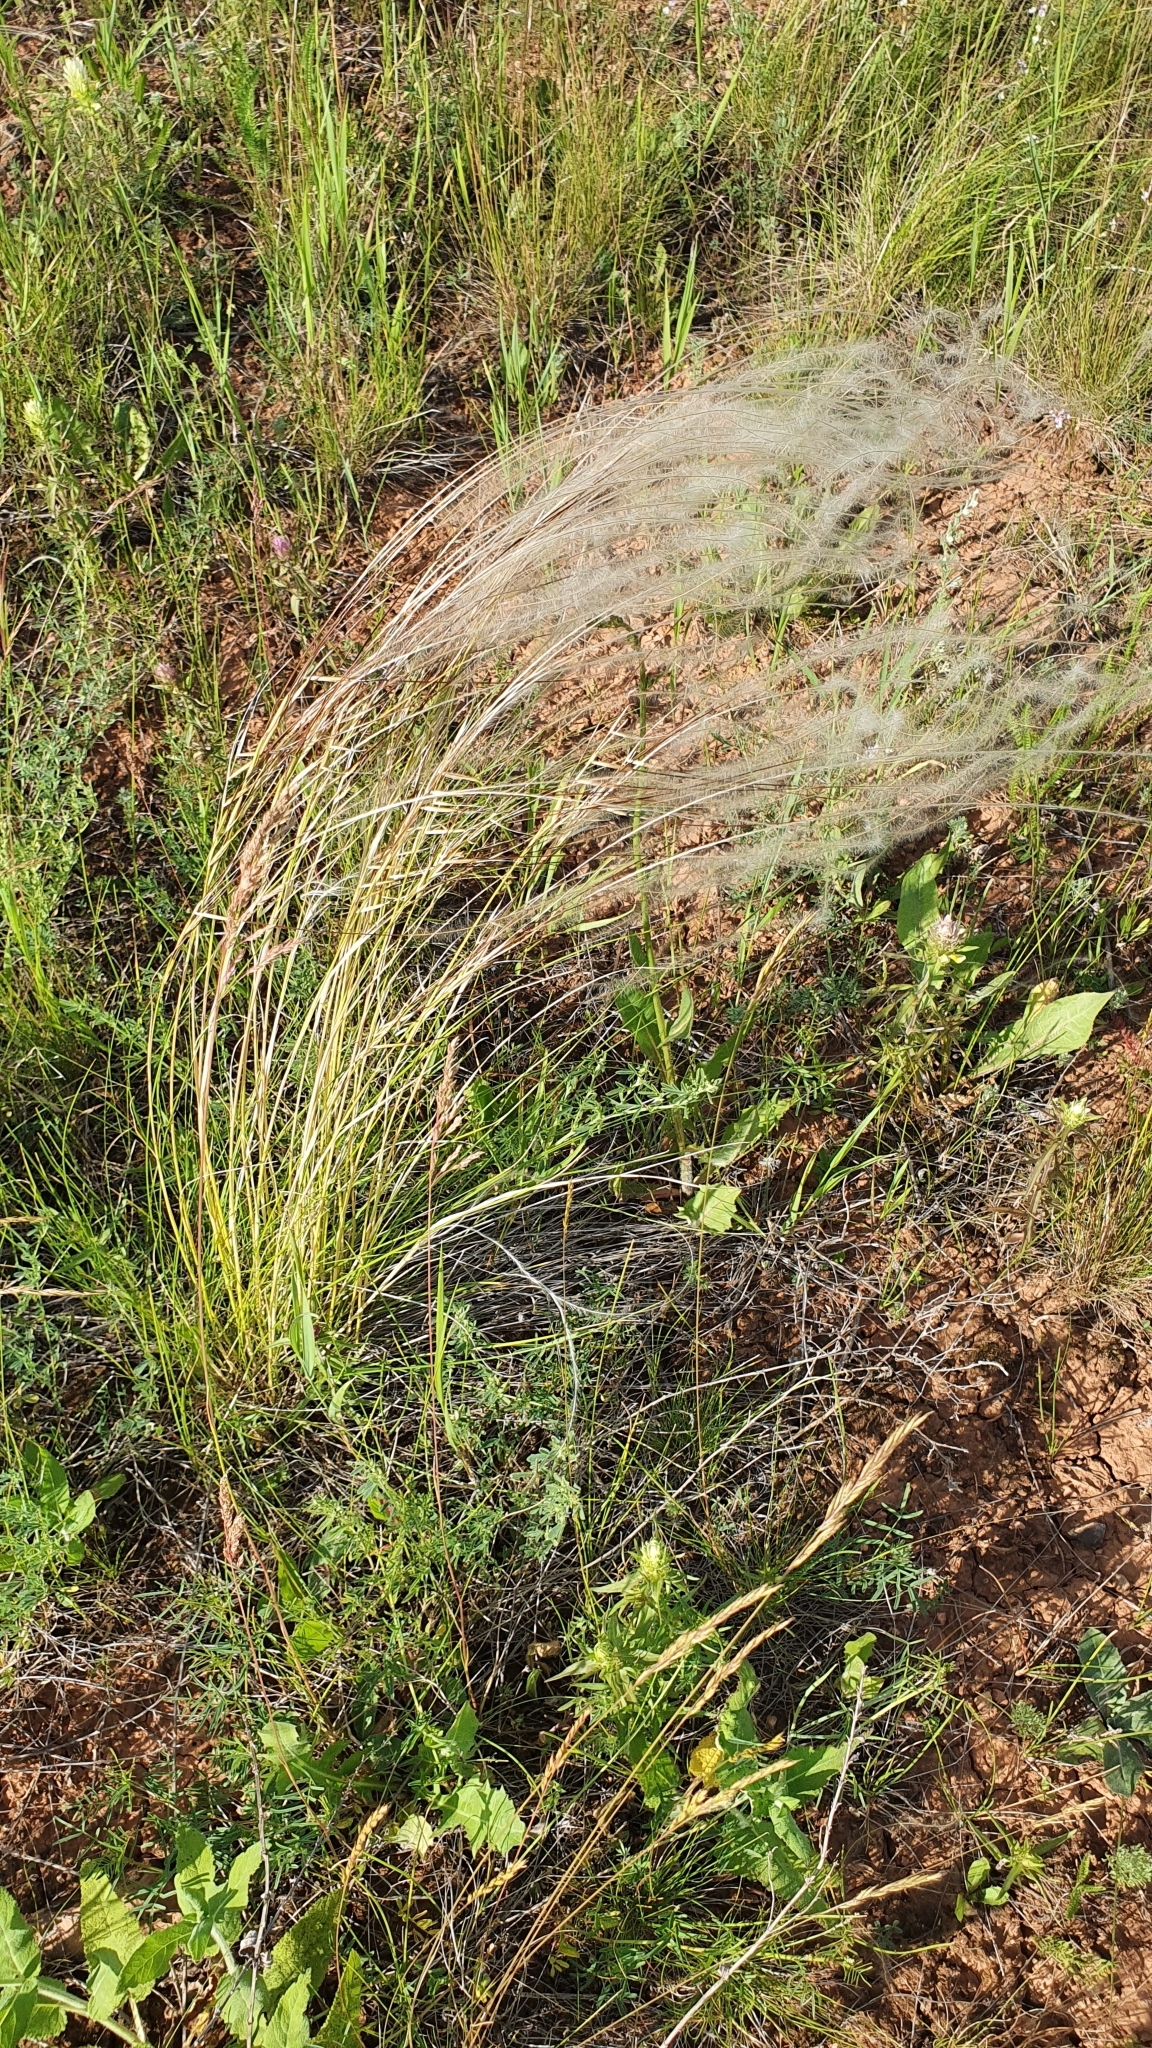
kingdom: Plantae
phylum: Tracheophyta
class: Liliopsida
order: Poales
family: Poaceae
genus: Stipa
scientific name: Stipa pennata
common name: European feather grass
